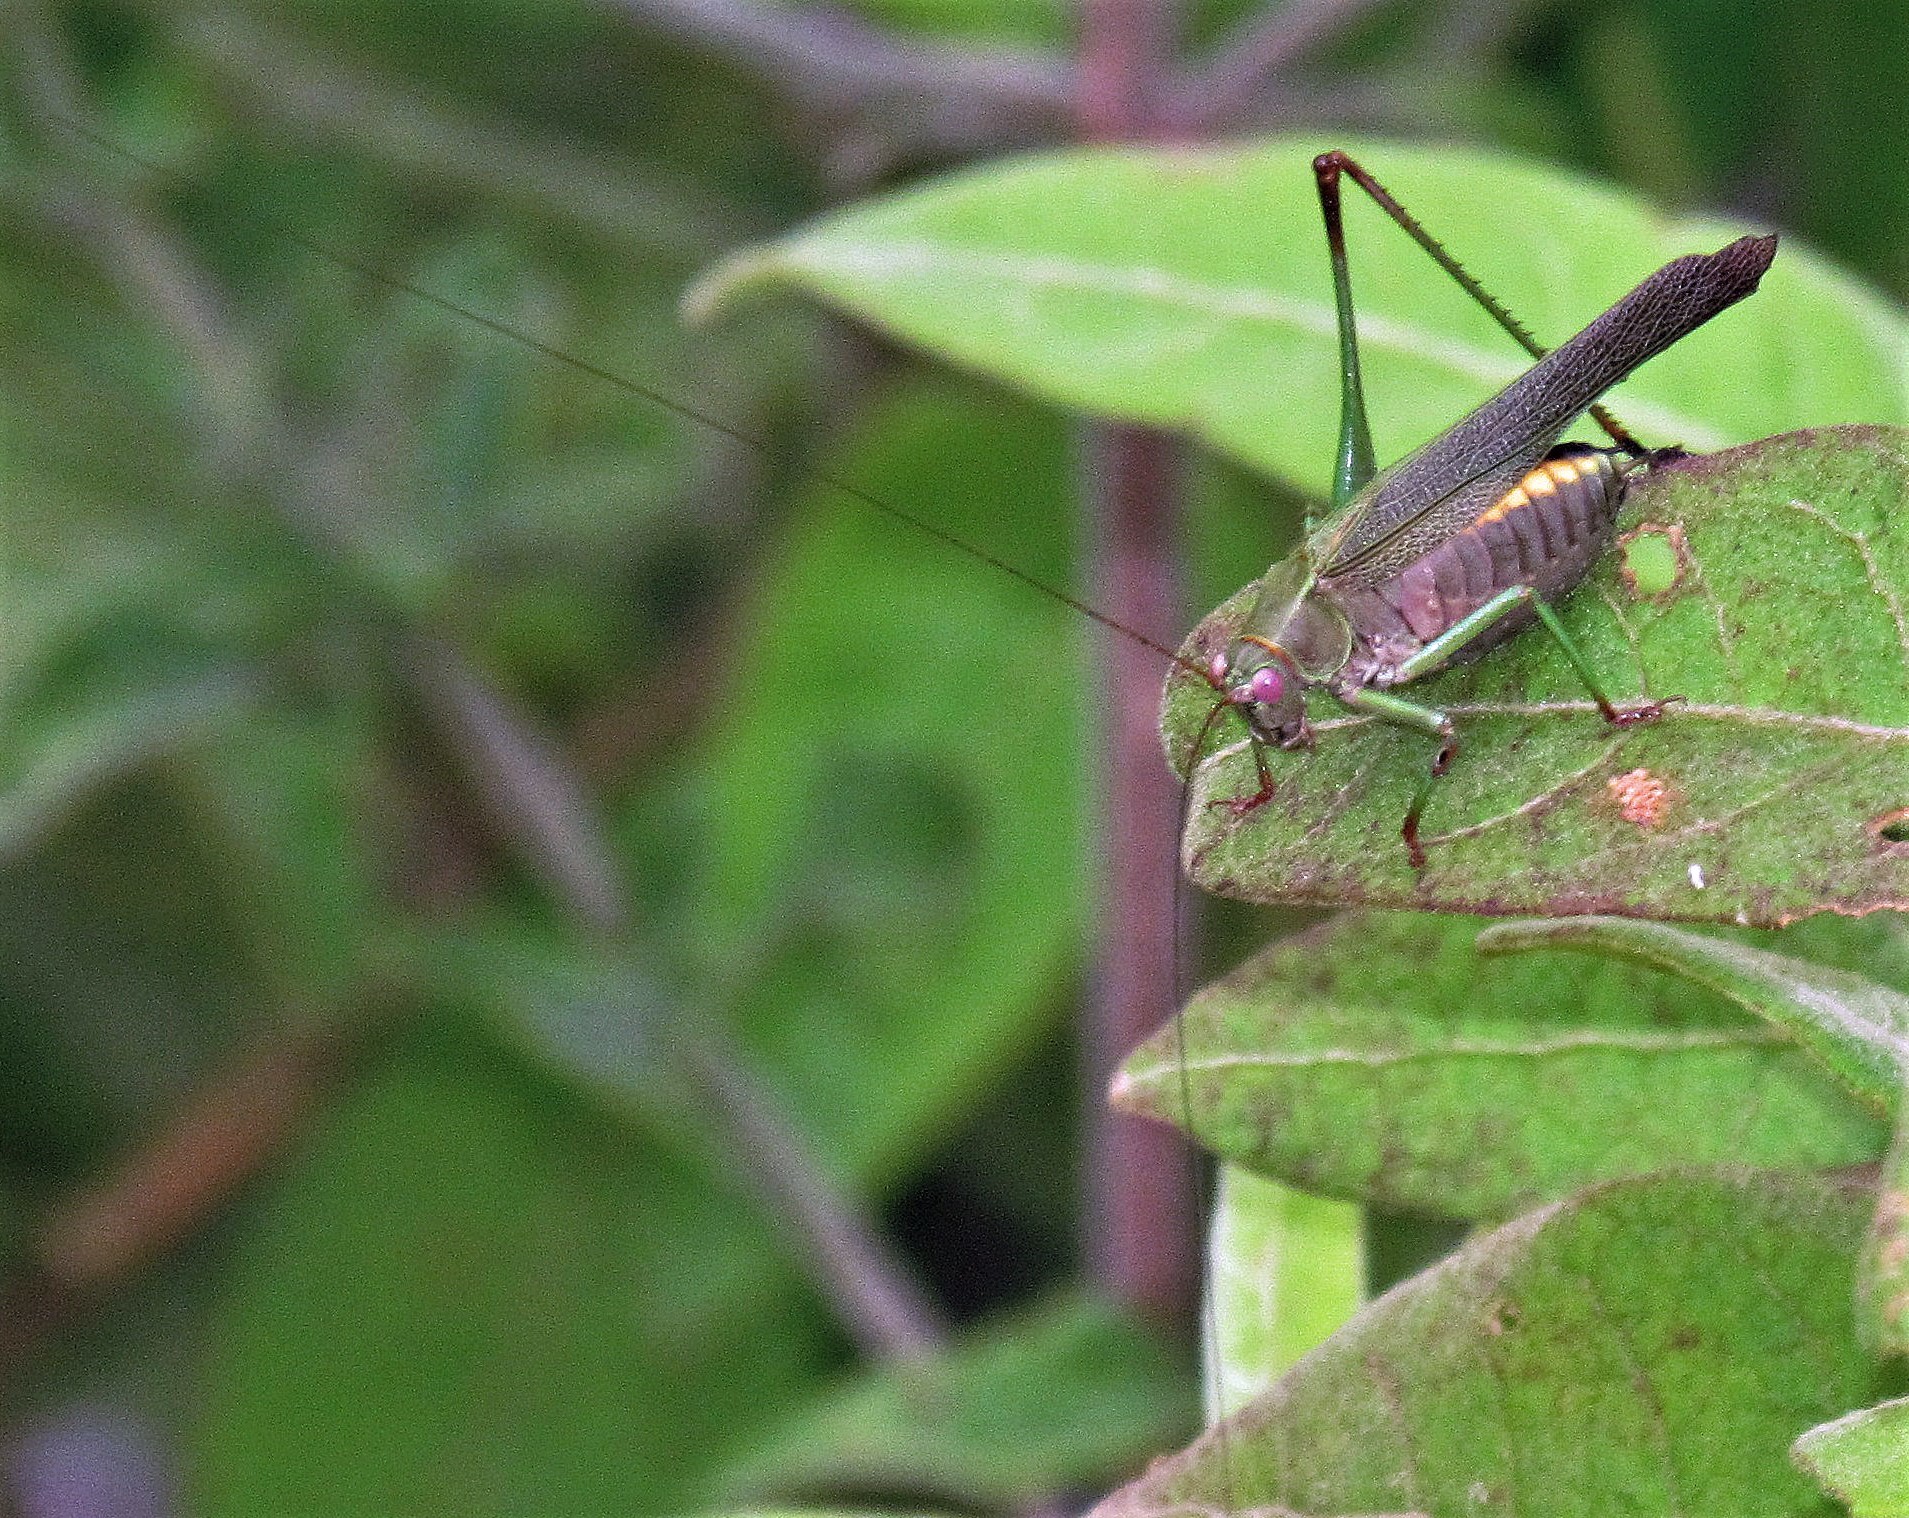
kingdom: Animalia
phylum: Arthropoda
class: Insecta
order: Orthoptera
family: Tettigoniidae
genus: Enthephippion
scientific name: Enthephippion borellii
